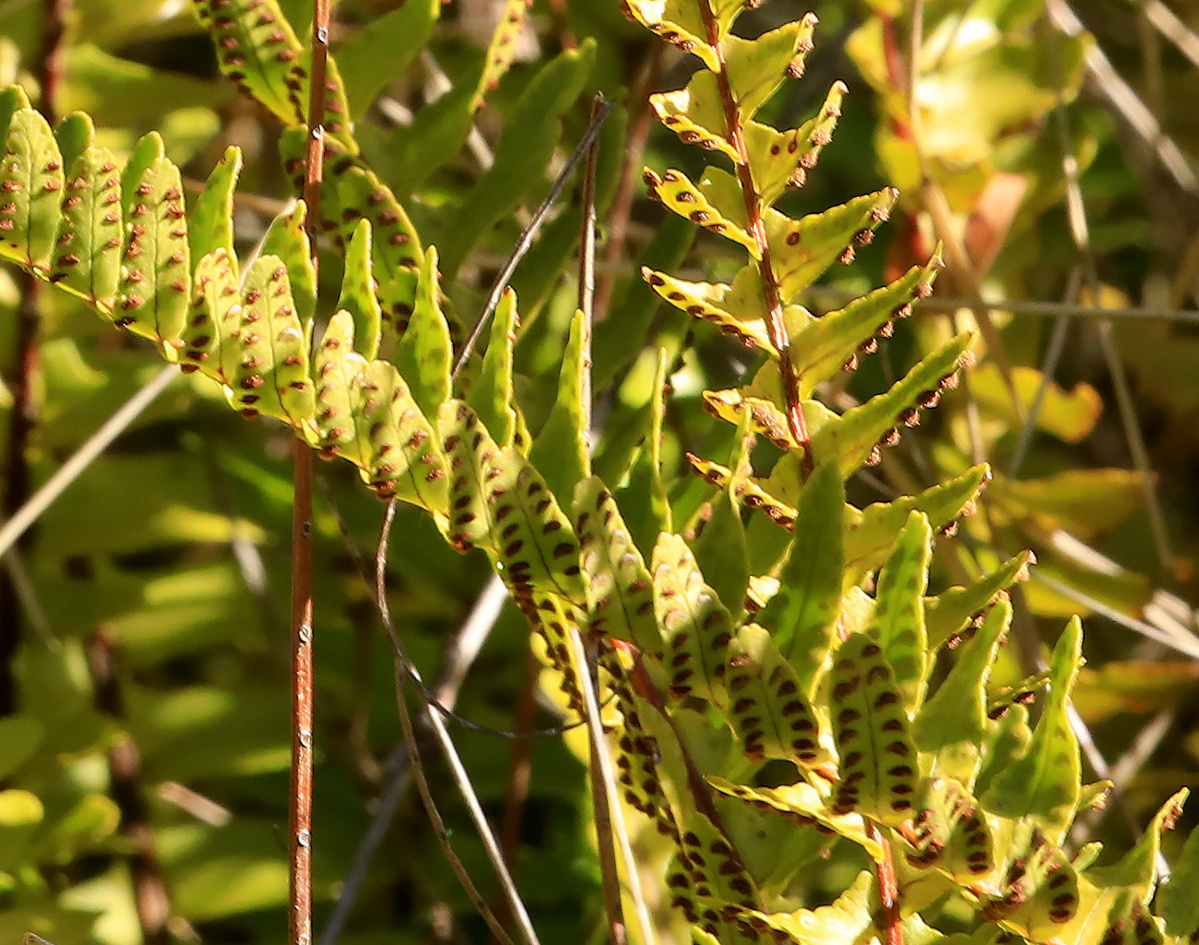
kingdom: Plantae
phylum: Tracheophyta
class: Polypodiopsida
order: Polypodiales
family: Nephrolepidaceae
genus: Nephrolepis
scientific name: Nephrolepis cordifolia
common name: Narrow swordfern
